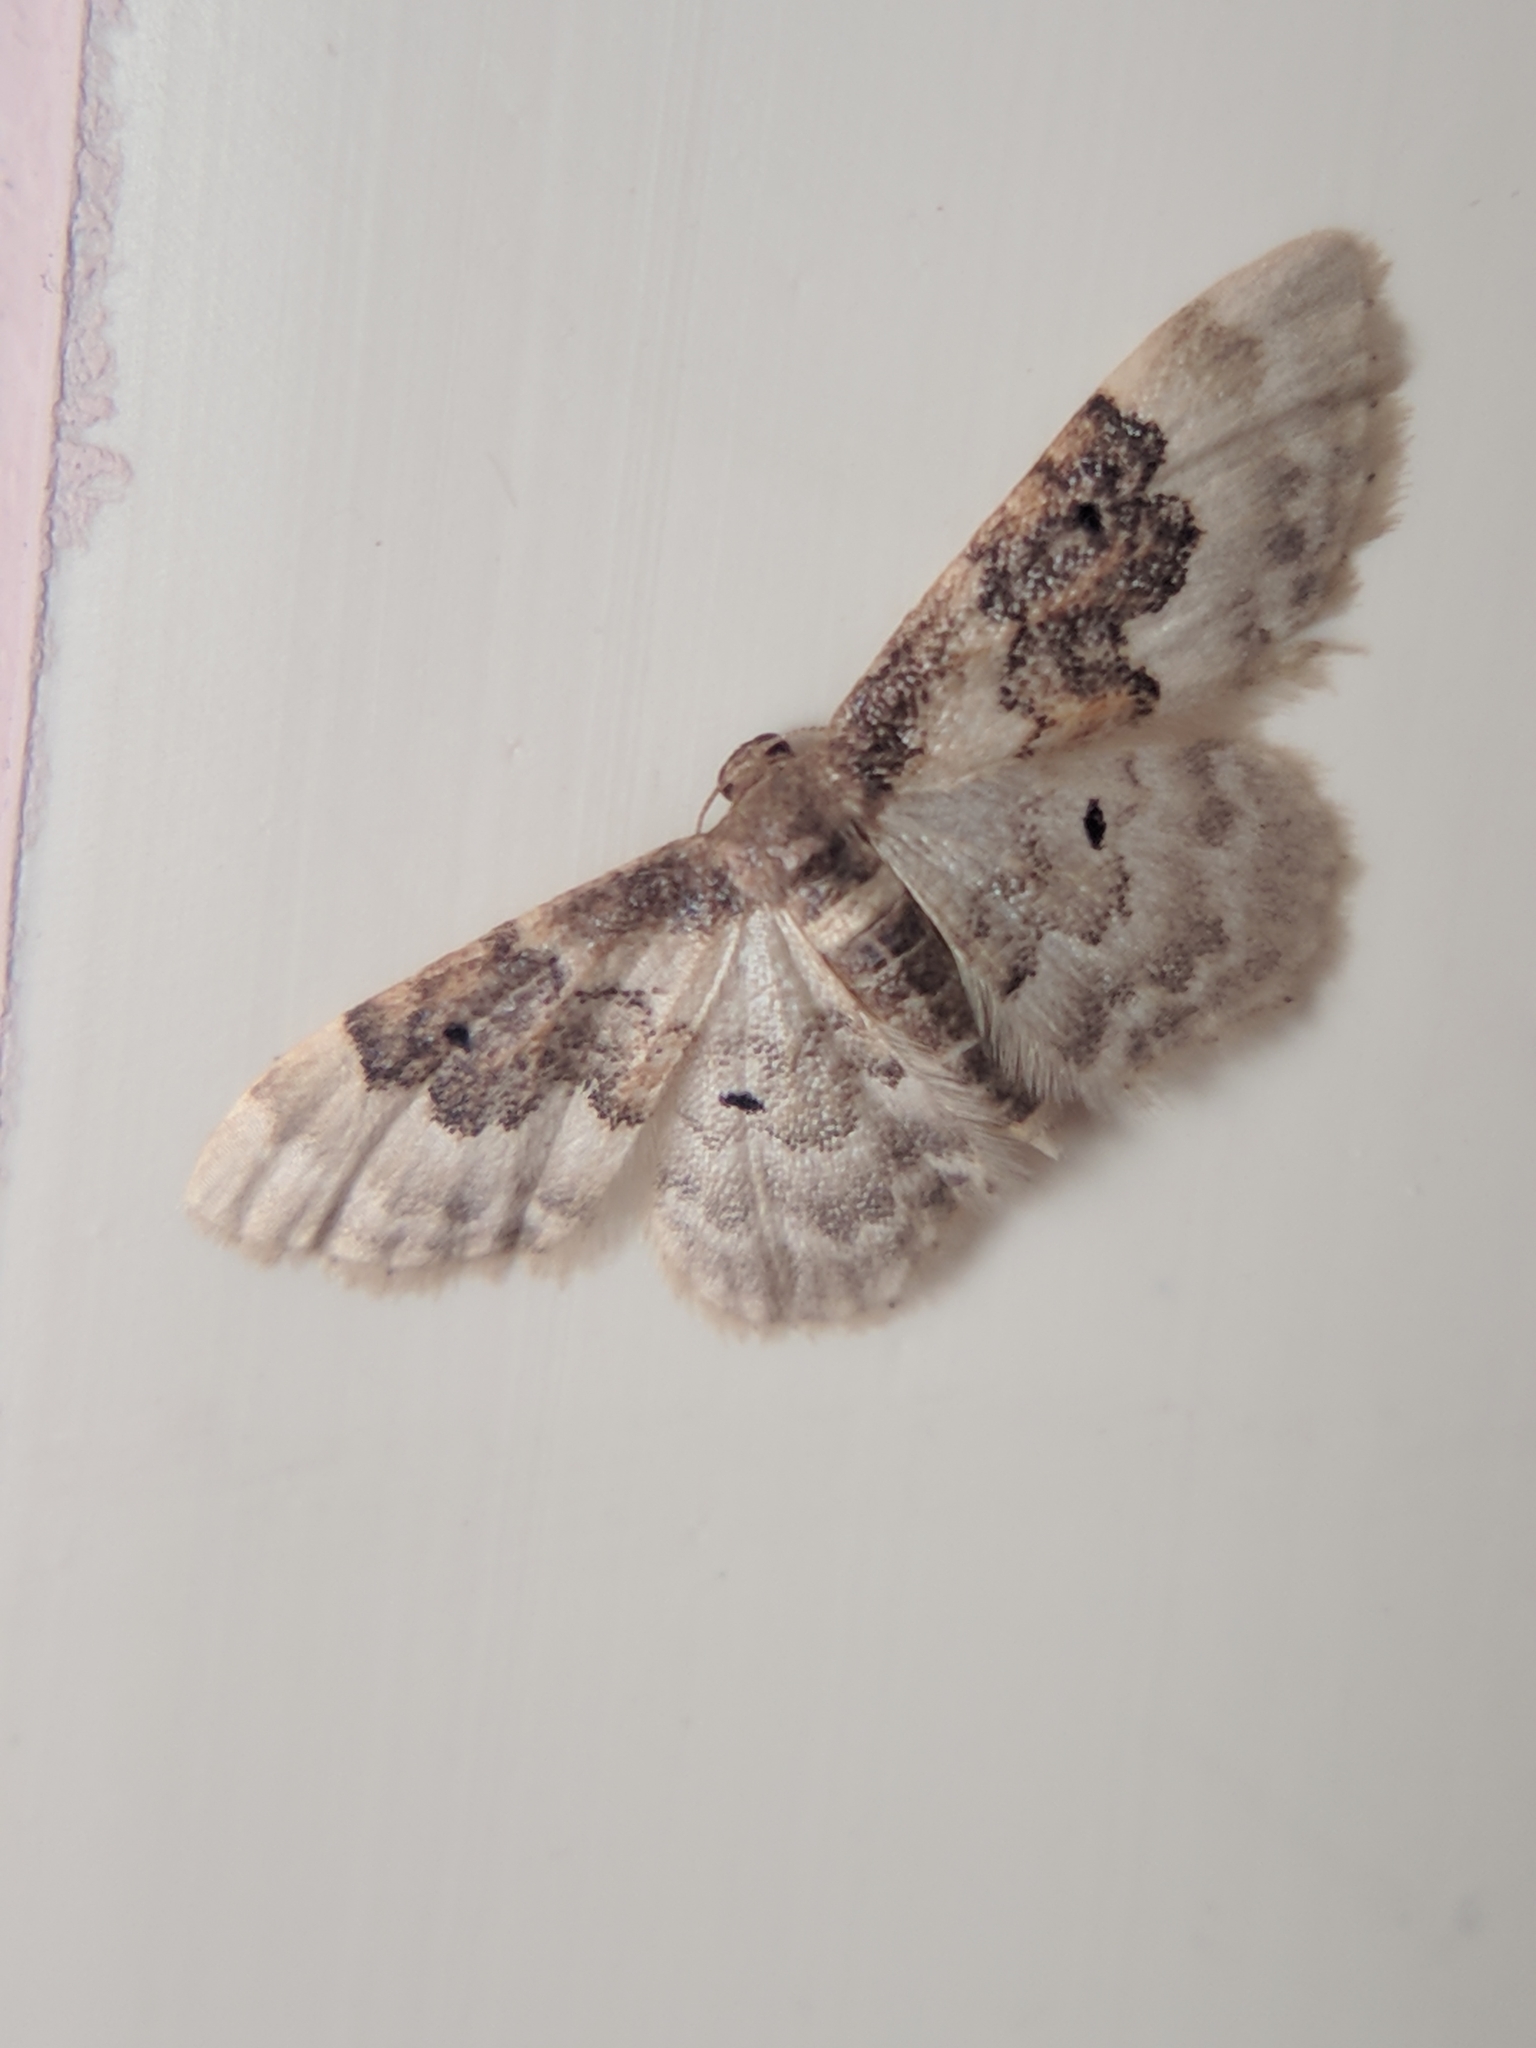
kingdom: Animalia
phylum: Arthropoda
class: Insecta
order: Lepidoptera
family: Geometridae
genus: Idaea
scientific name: Idaea rusticata
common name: Least carpet
